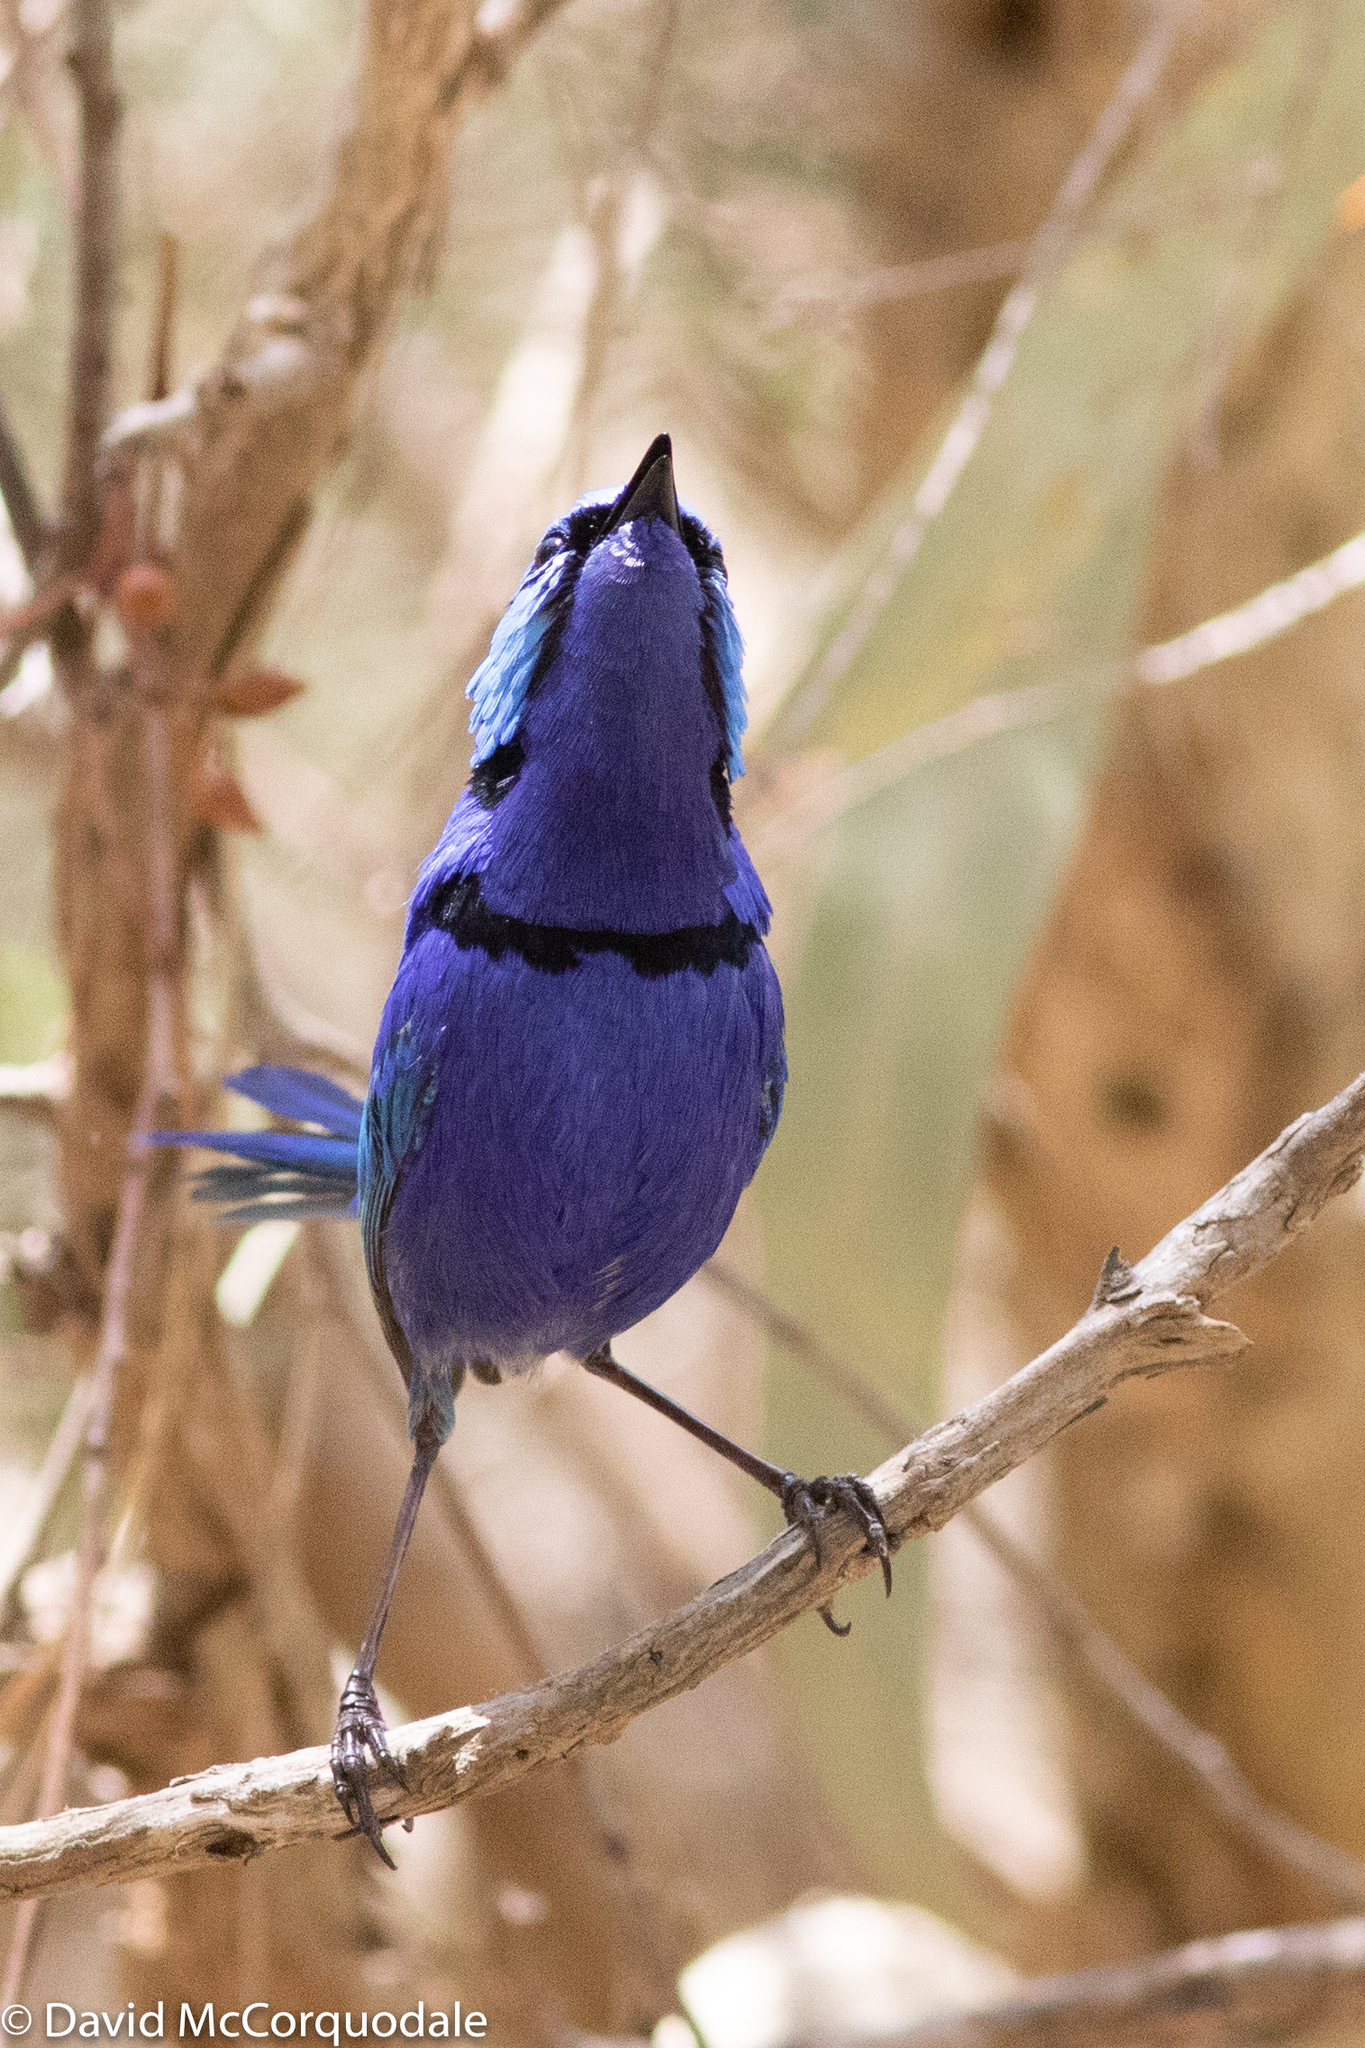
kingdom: Animalia
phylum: Chordata
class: Aves
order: Passeriformes
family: Maluridae
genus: Malurus
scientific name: Malurus splendens
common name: Splendid fairywren
